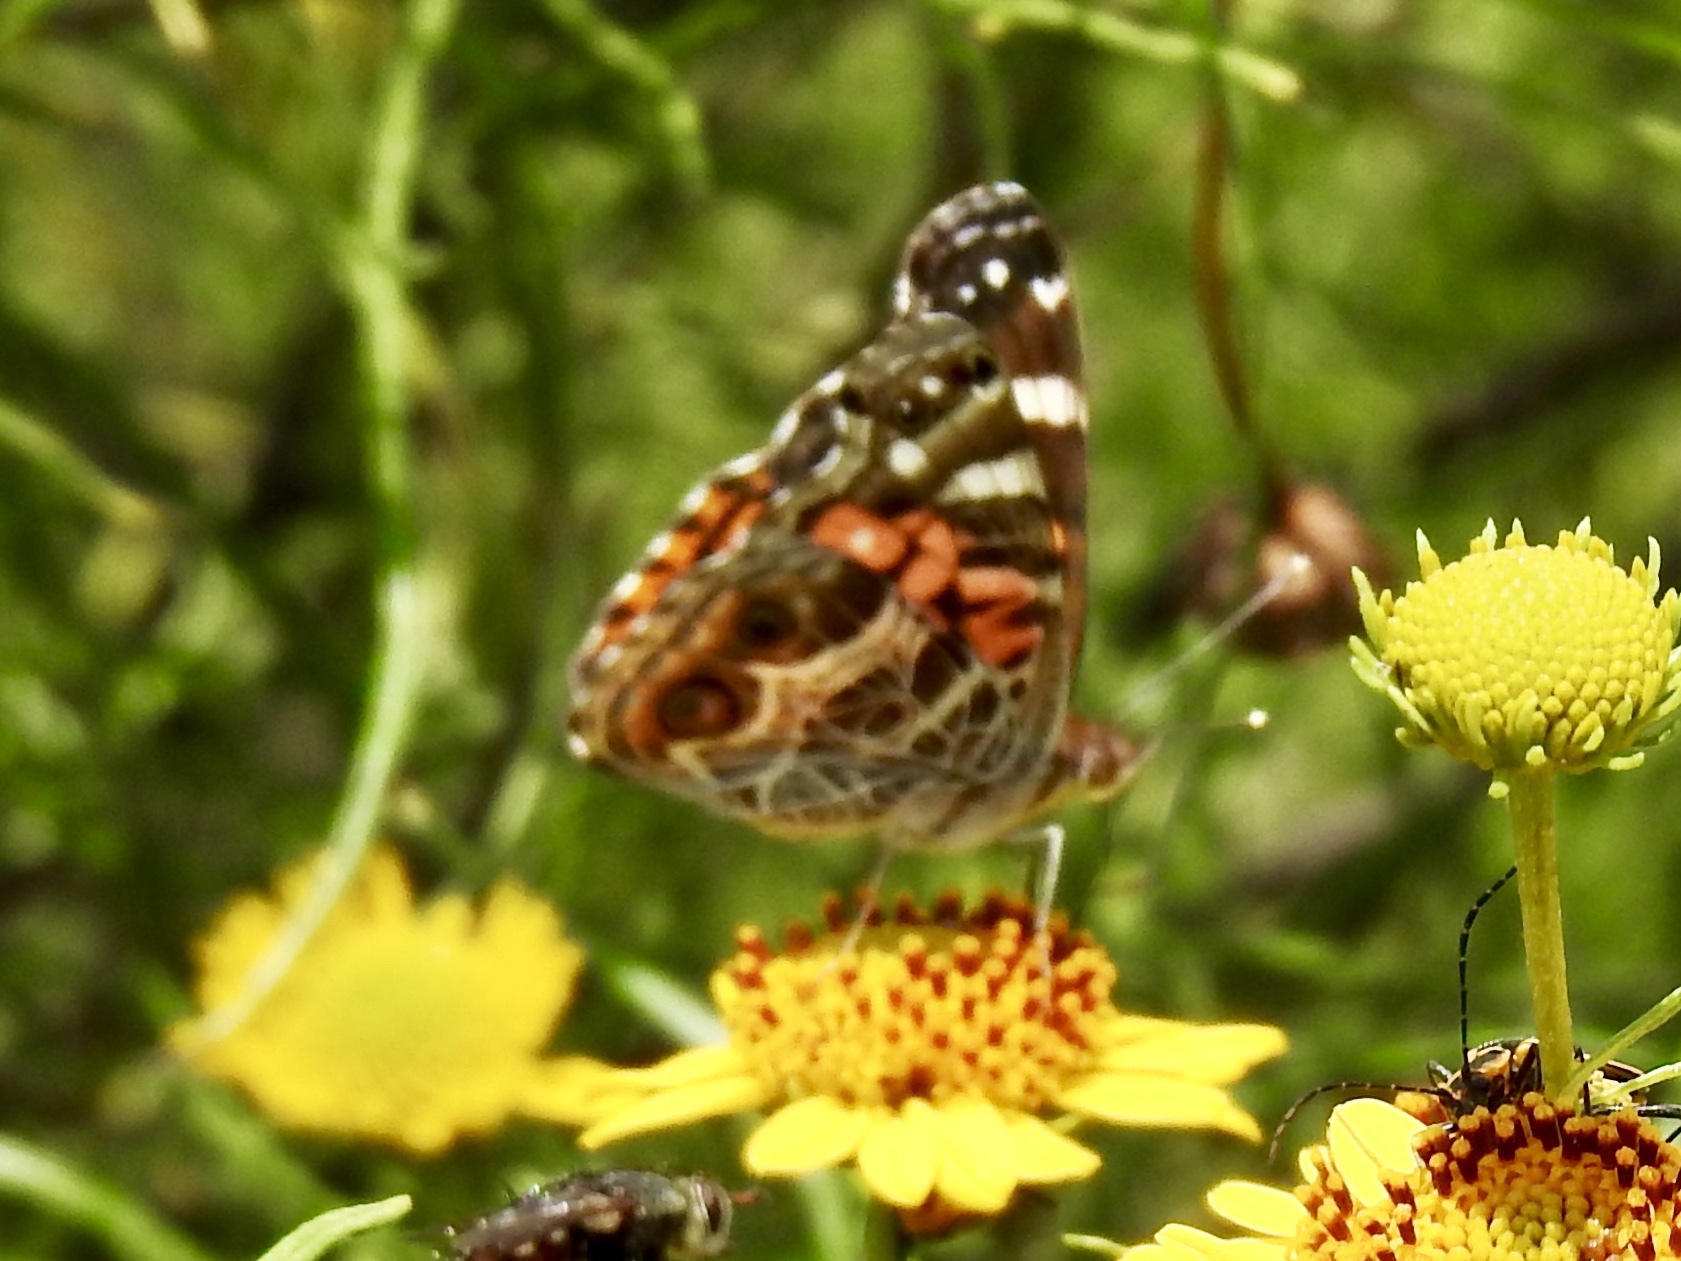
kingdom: Animalia
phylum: Arthropoda
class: Insecta
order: Lepidoptera
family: Nymphalidae
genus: Vanessa
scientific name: Vanessa virginiensis
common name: American lady
